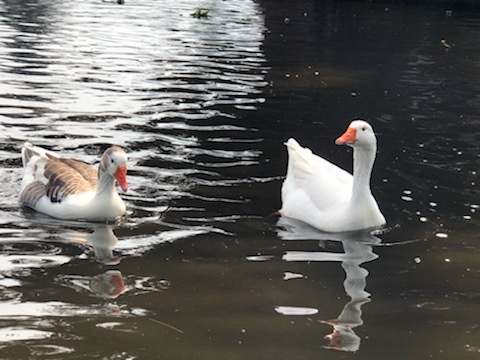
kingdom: Animalia
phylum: Chordata
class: Aves
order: Anseriformes
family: Anatidae
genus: Anser
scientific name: Anser anser
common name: Greylag goose
